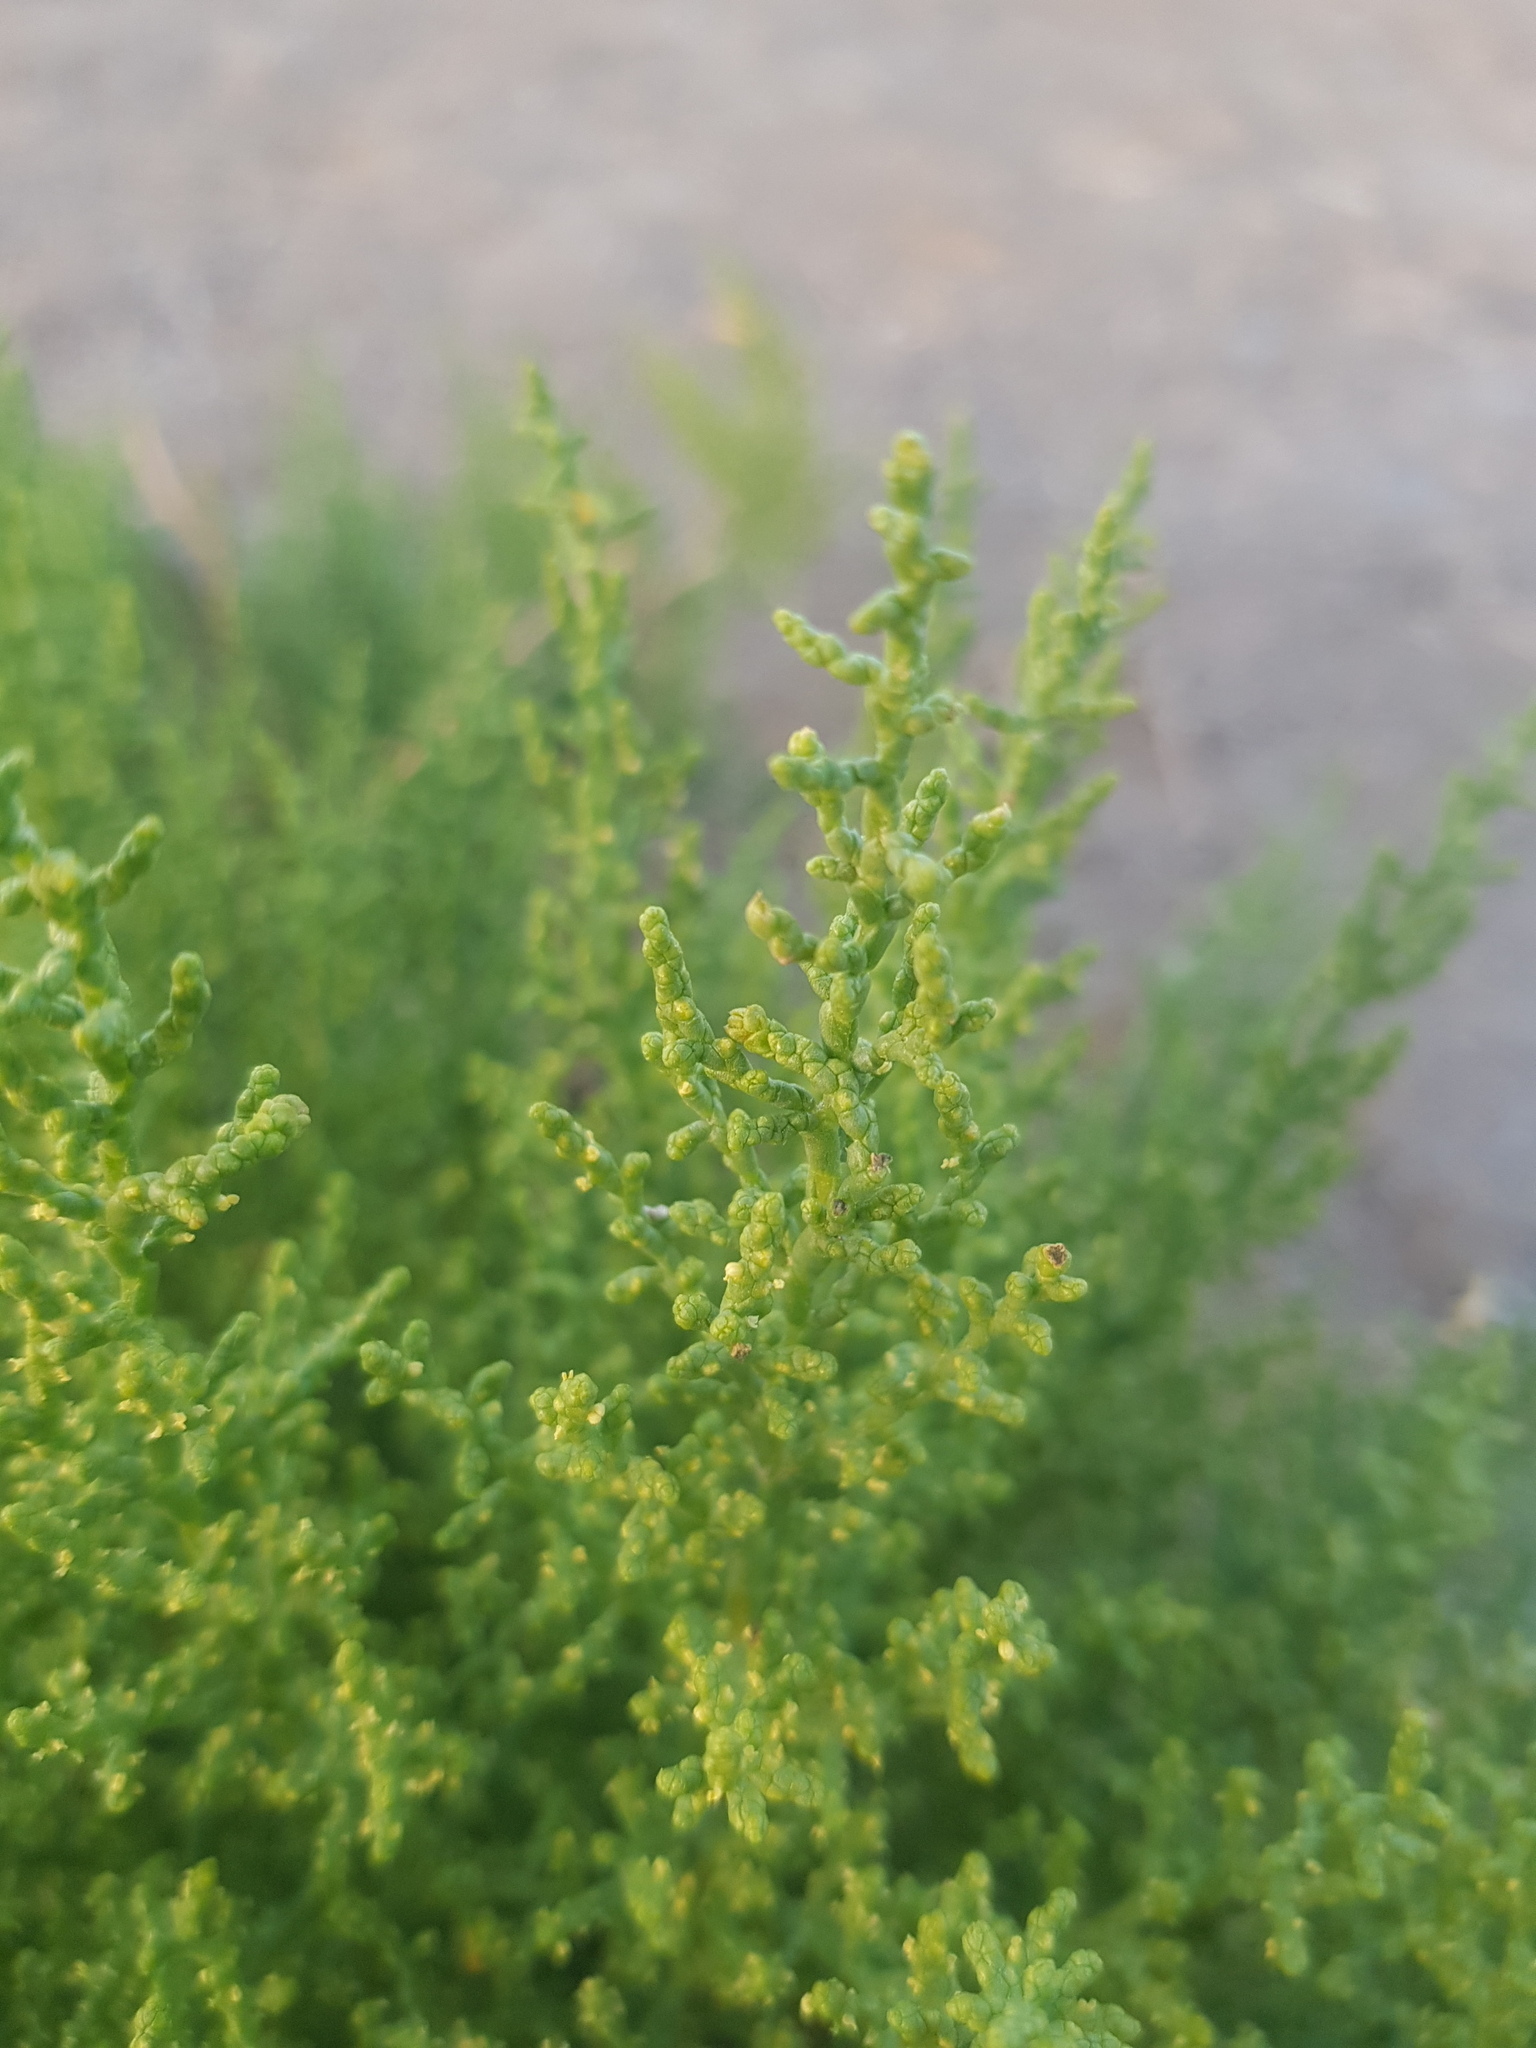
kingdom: Plantae
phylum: Tracheophyta
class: Magnoliopsida
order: Caryophyllales
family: Amaranthaceae
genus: Kalidium
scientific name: Kalidium gracile
